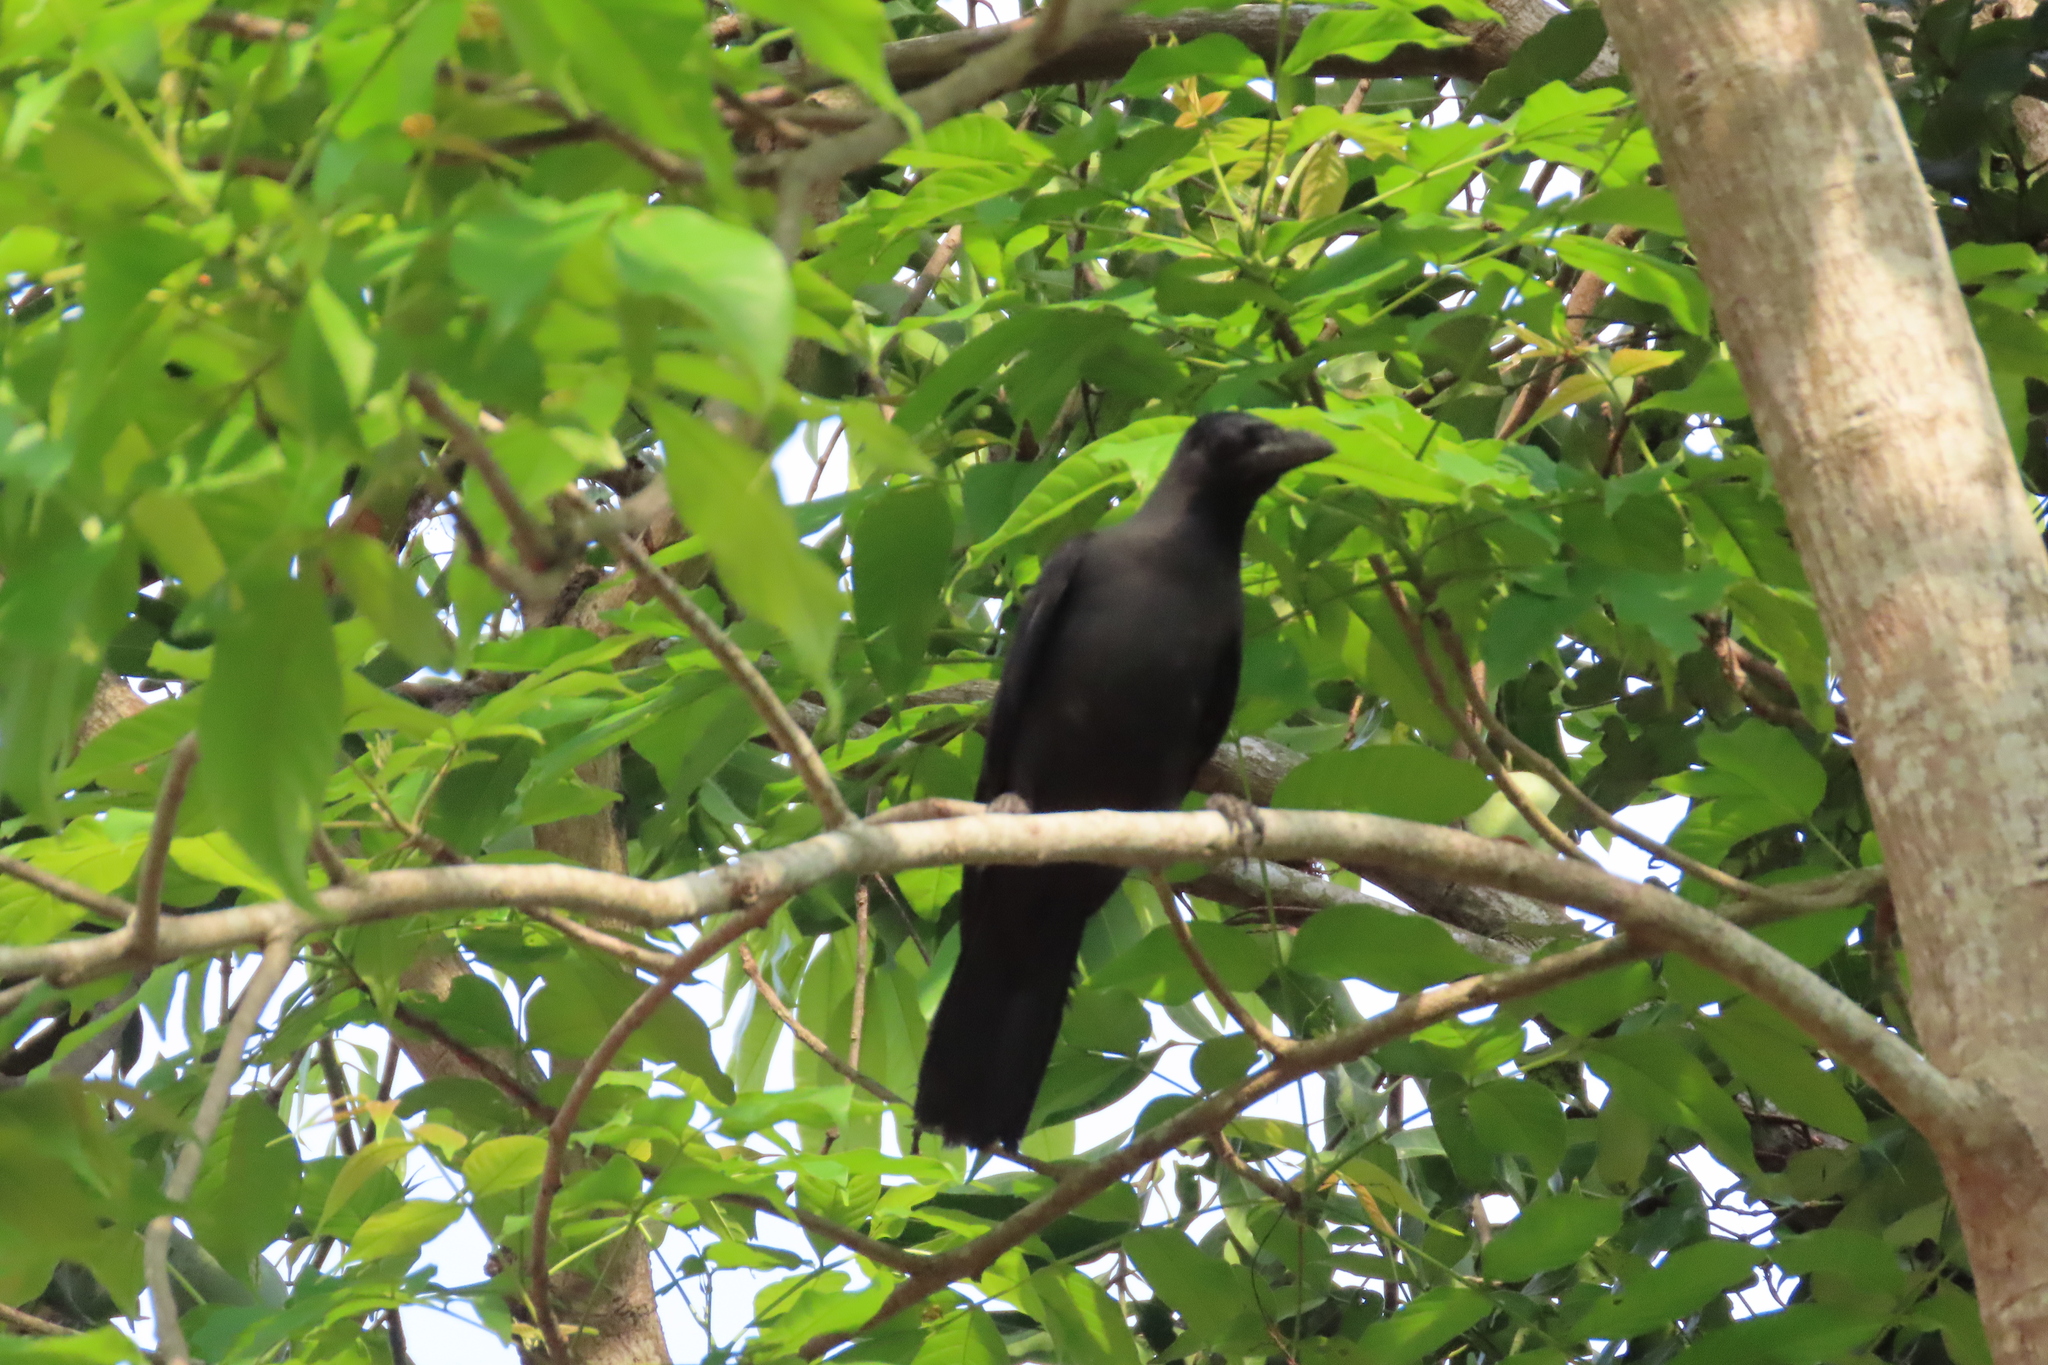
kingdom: Animalia
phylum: Chordata
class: Aves
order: Passeriformes
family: Corvidae
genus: Corvus
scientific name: Corvus splendens
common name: House crow
